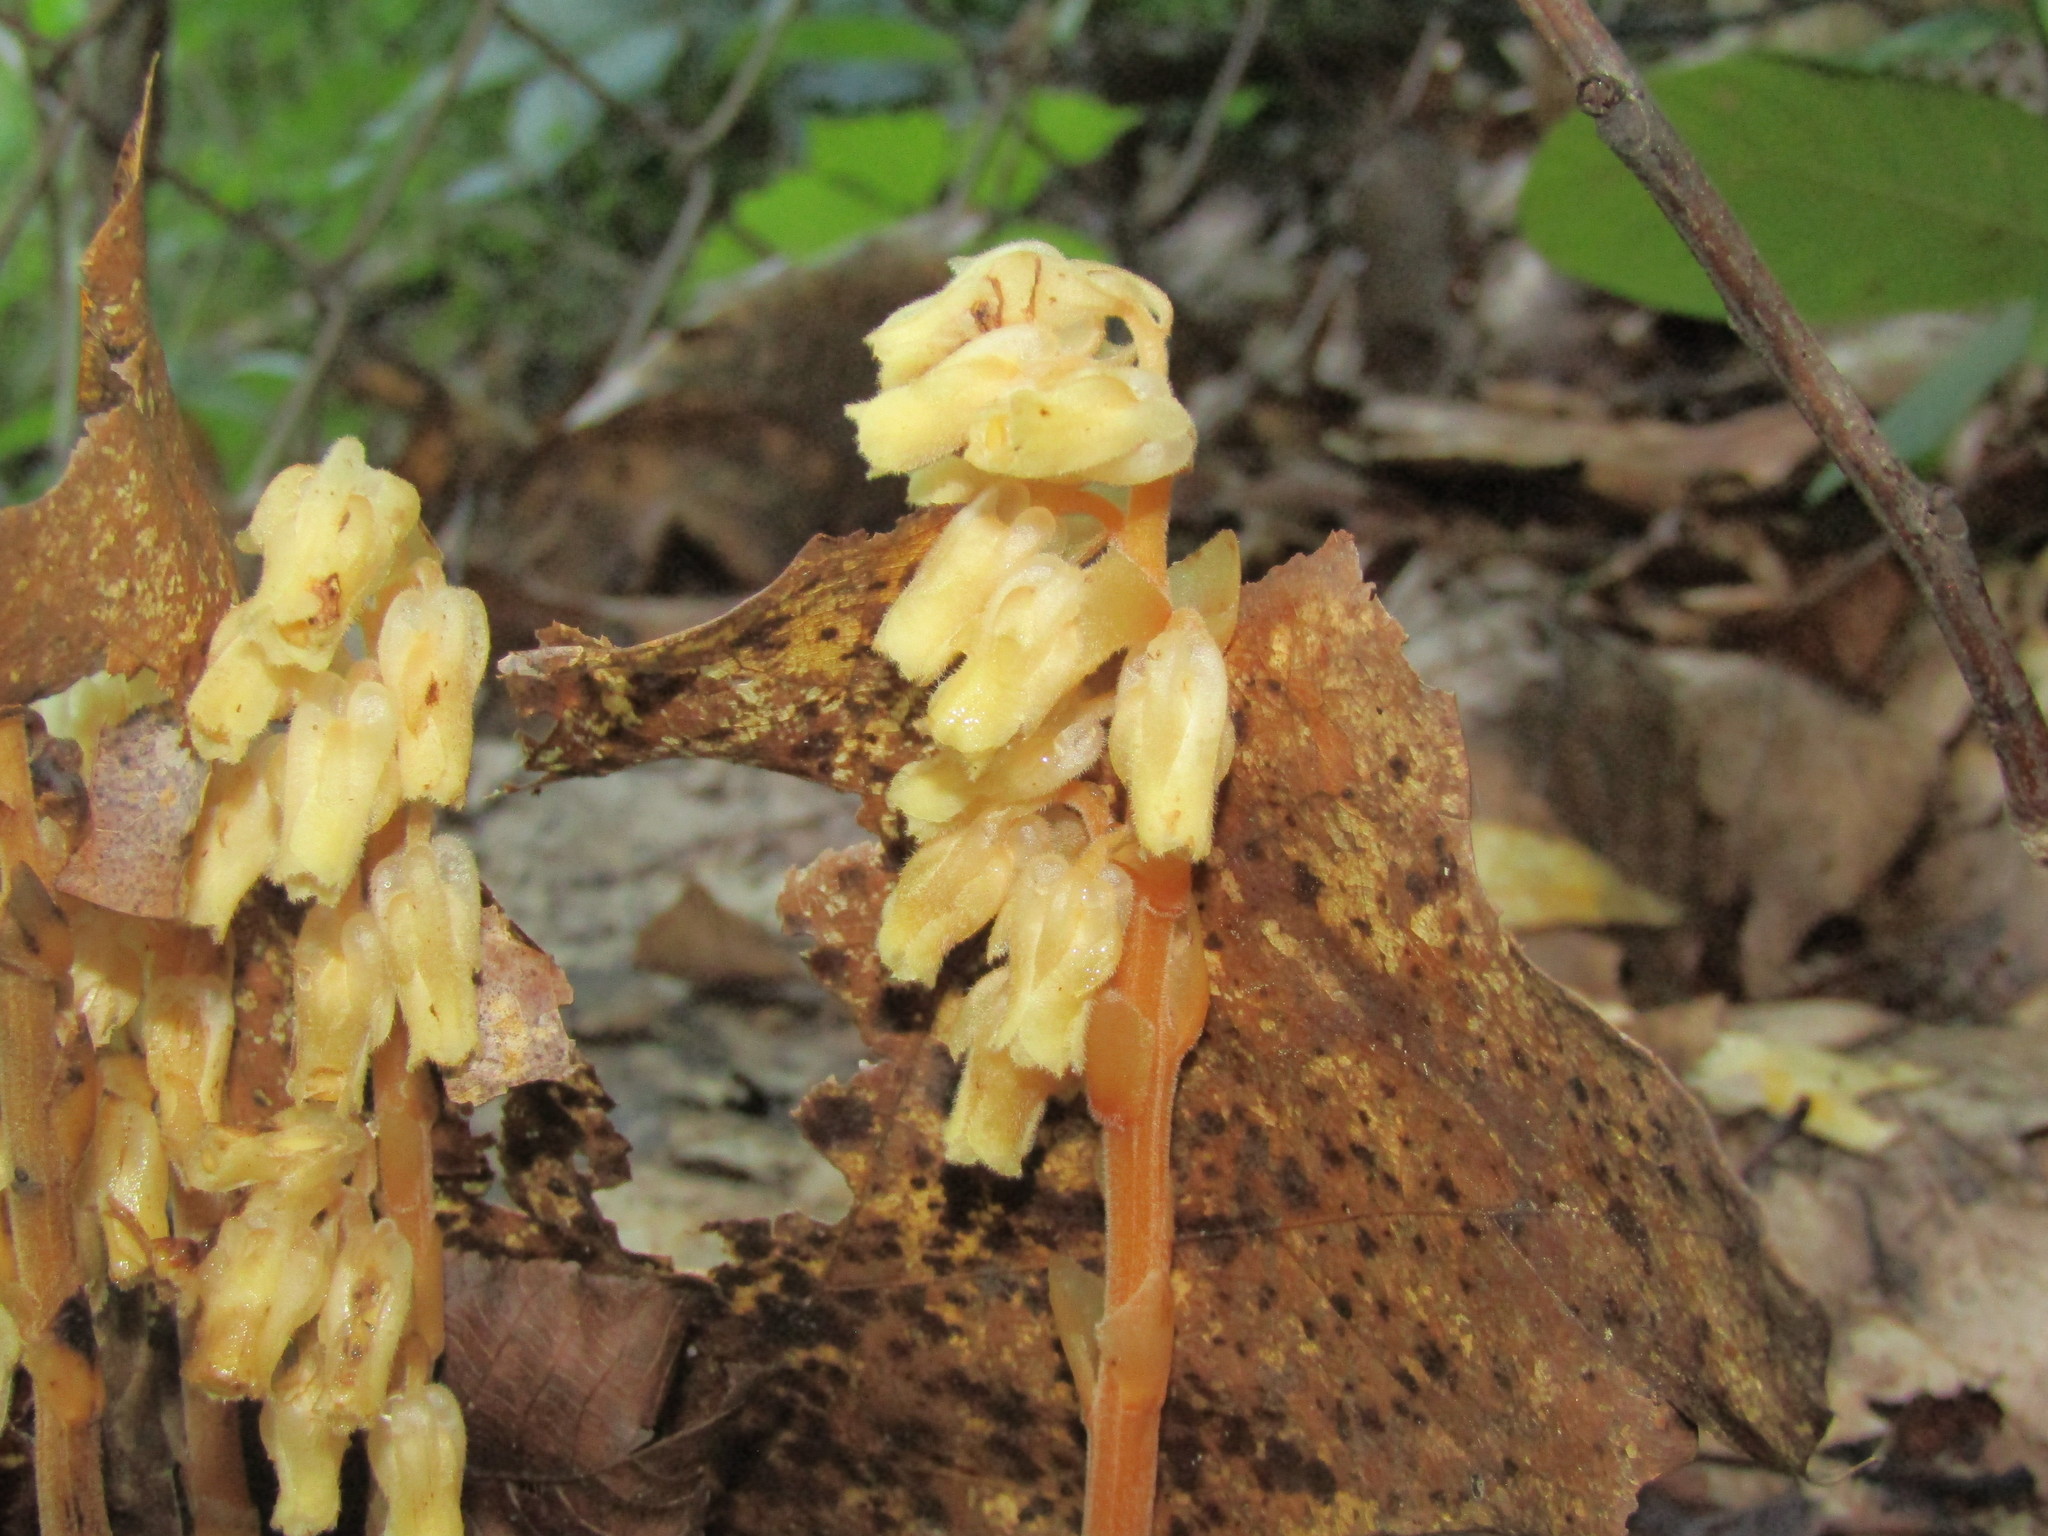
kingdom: Plantae
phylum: Tracheophyta
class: Magnoliopsida
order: Ericales
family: Ericaceae
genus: Hypopitys
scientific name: Hypopitys monotropa
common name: Yellow bird's-nest
